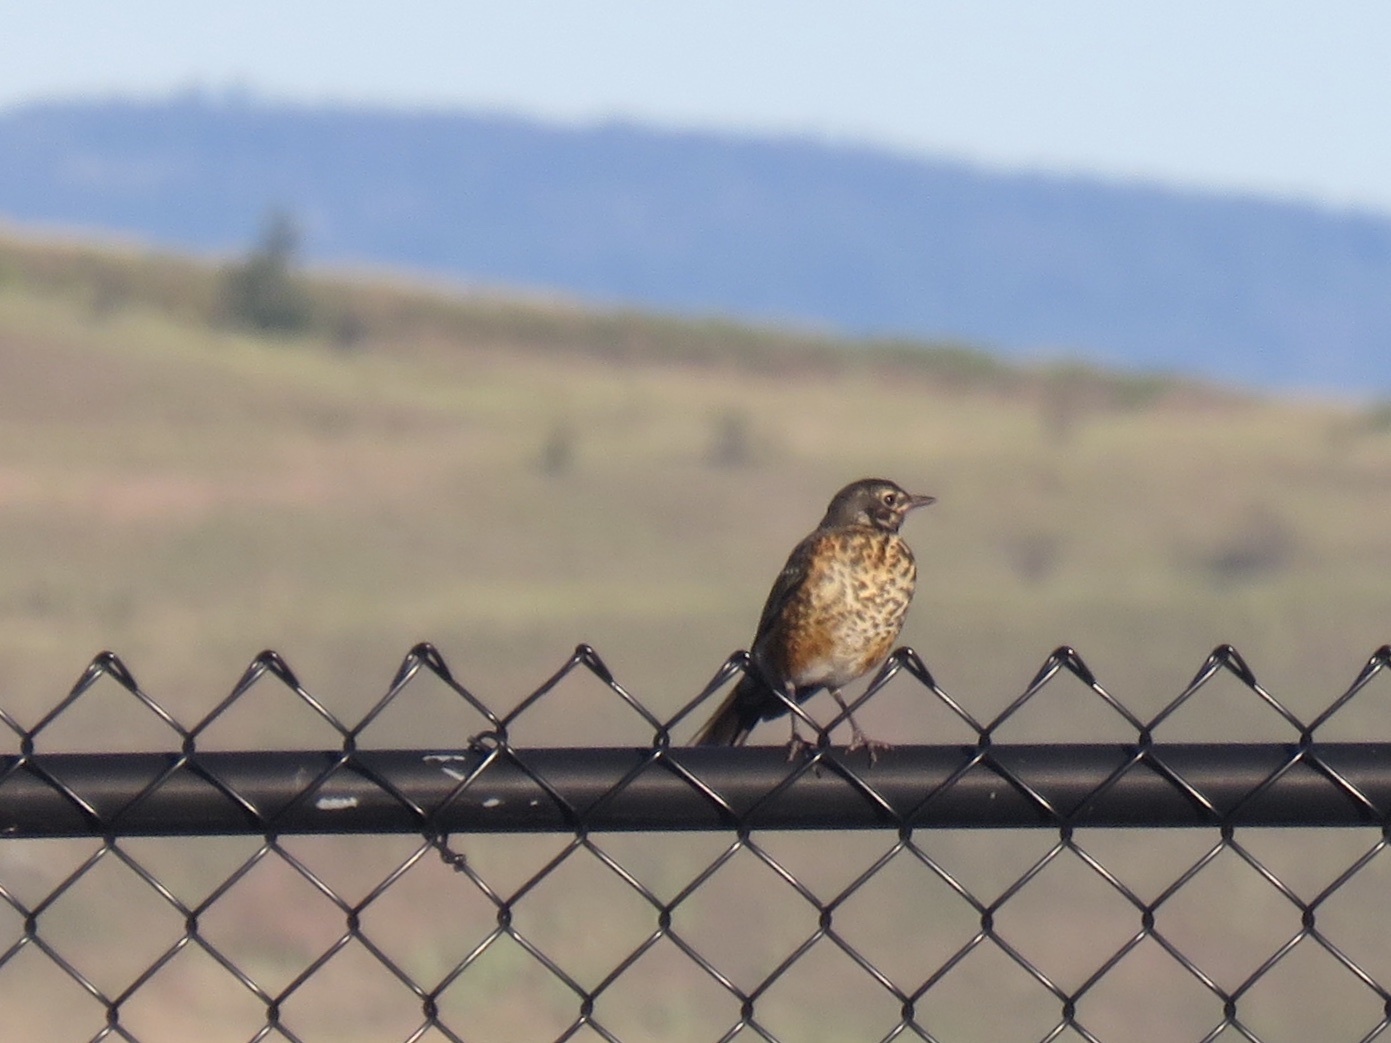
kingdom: Animalia
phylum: Chordata
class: Aves
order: Passeriformes
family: Turdidae
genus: Turdus
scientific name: Turdus migratorius
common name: American robin
